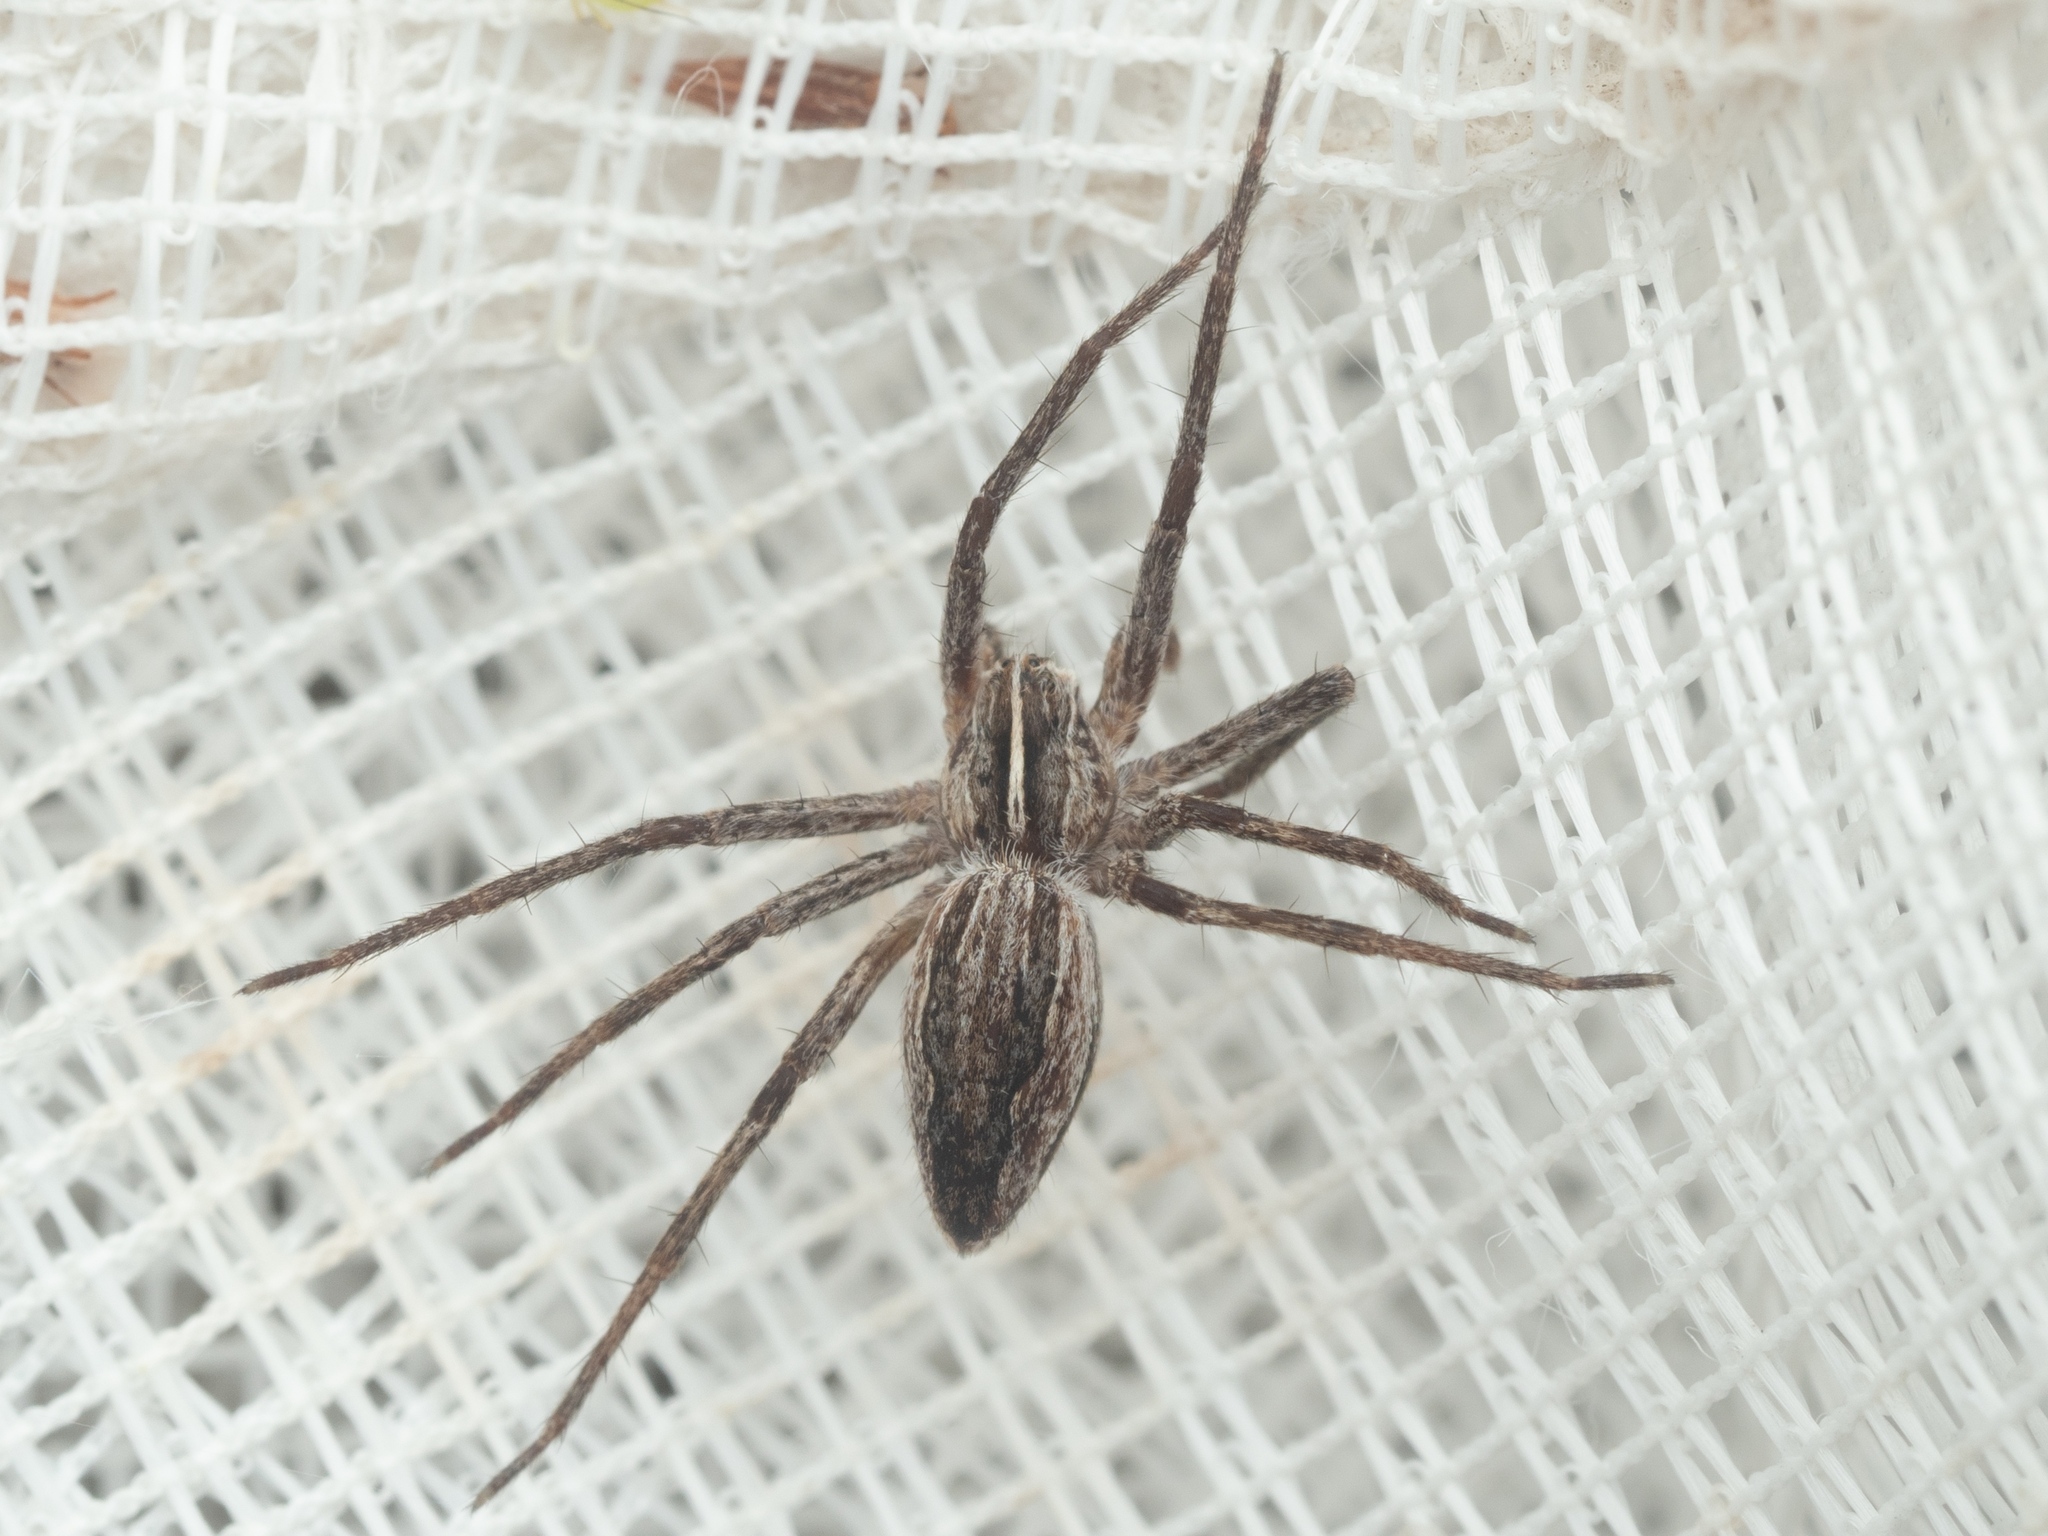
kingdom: Animalia
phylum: Arthropoda
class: Arachnida
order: Araneae
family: Pisauridae
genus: Pisaura
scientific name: Pisaura mirabilis
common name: Tent spider
